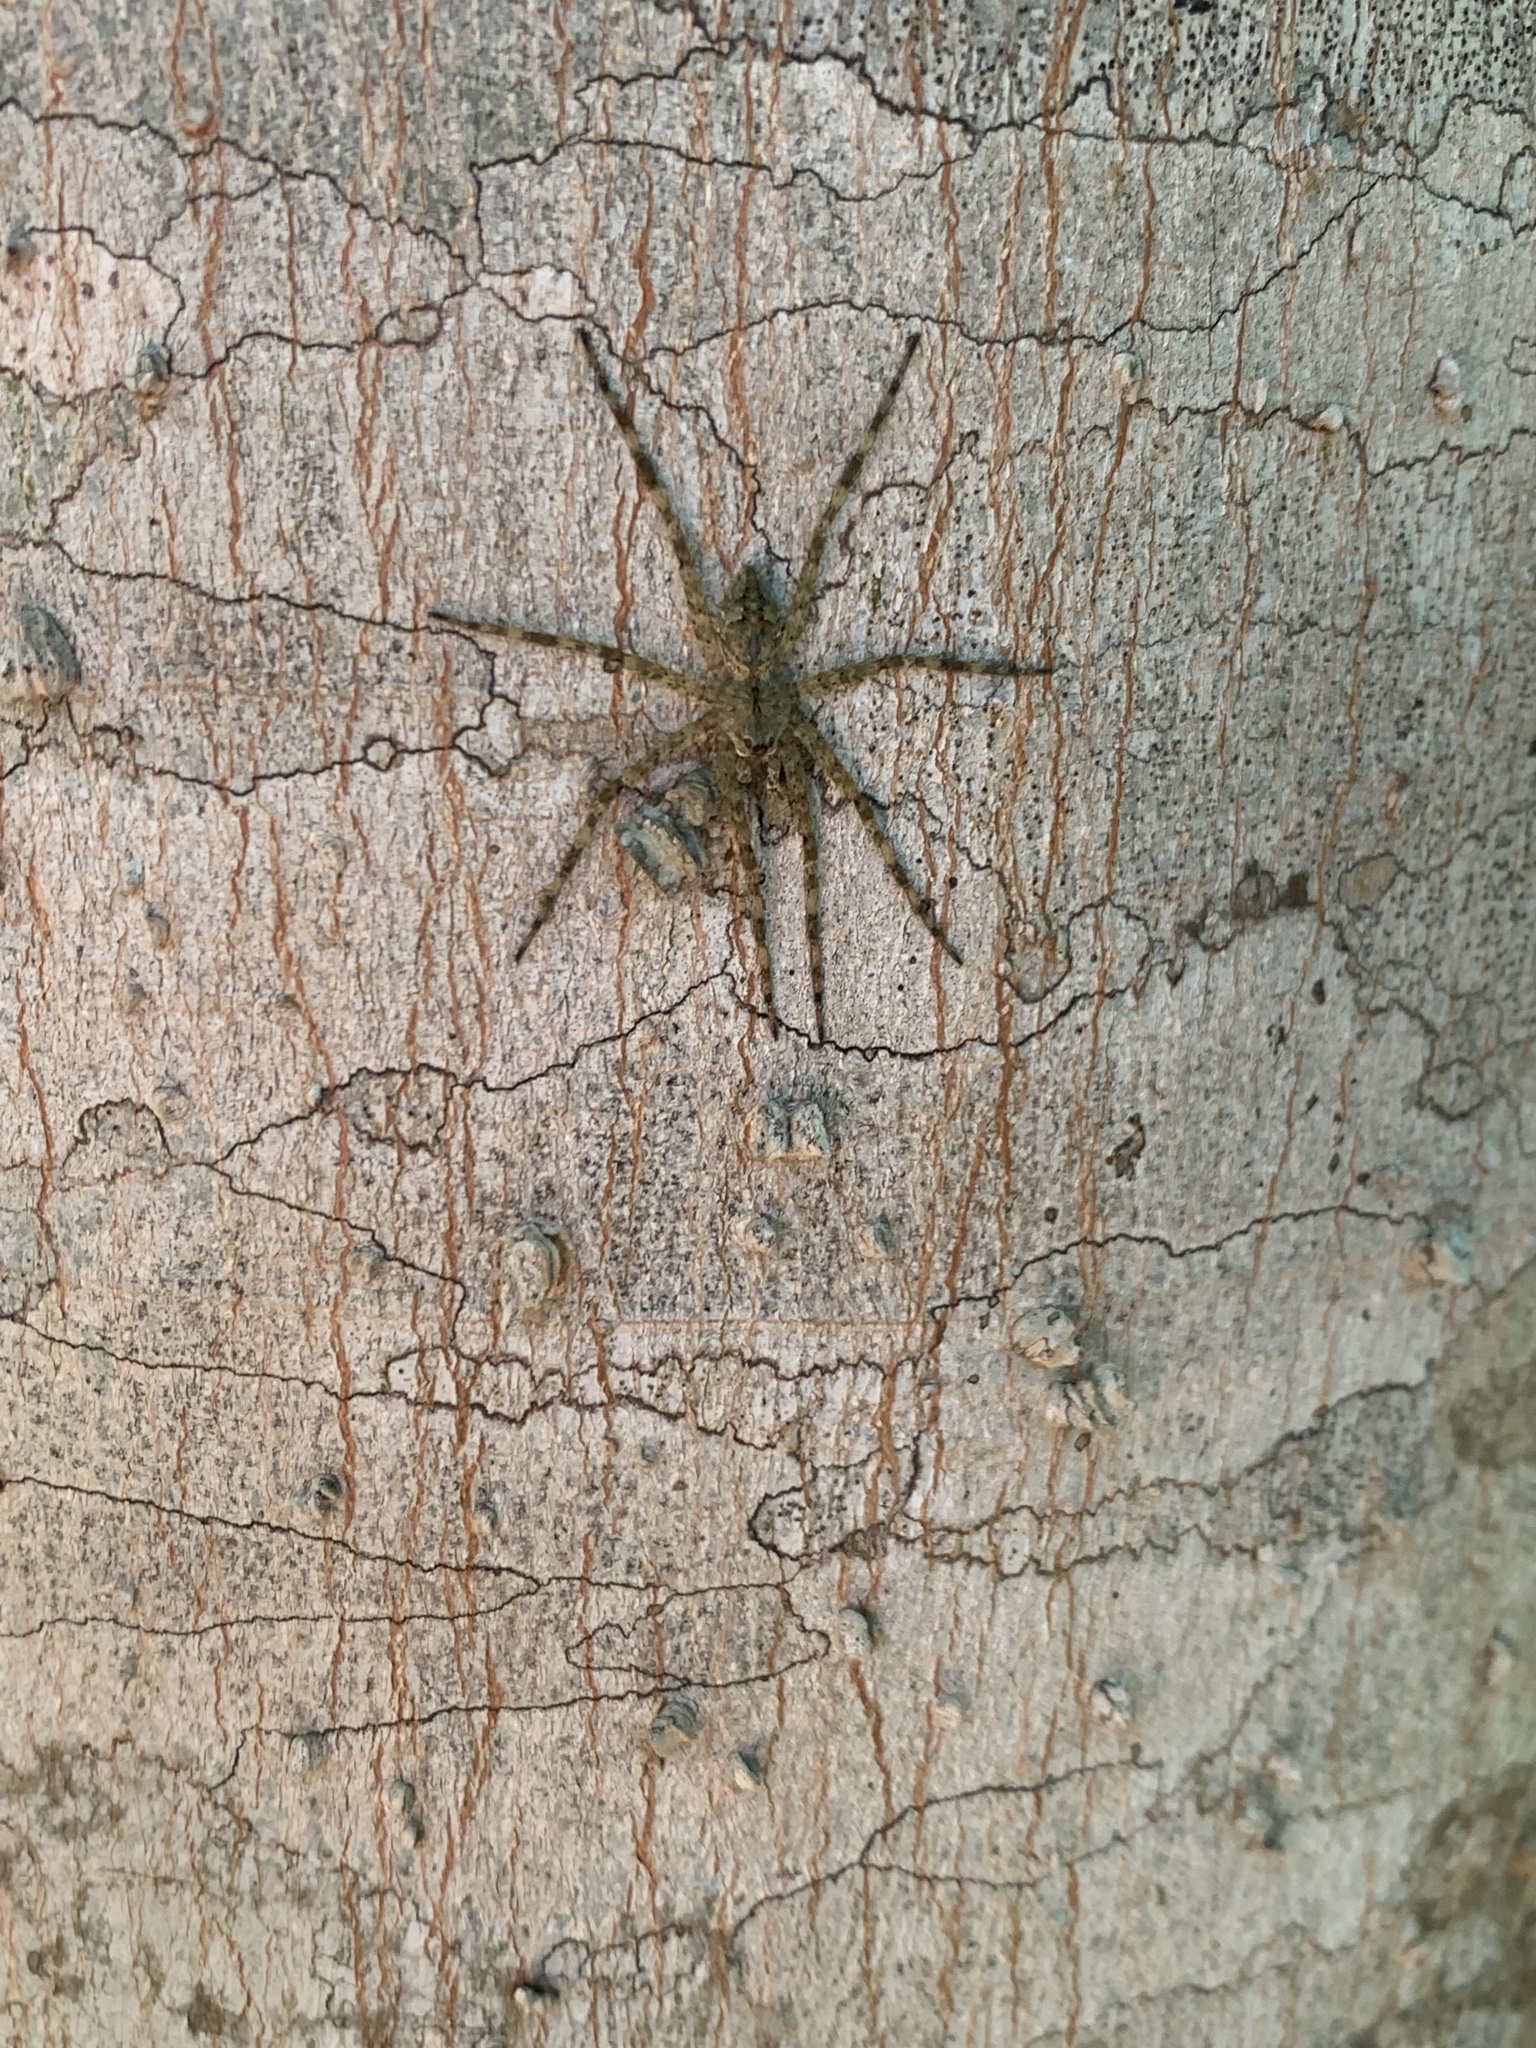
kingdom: Animalia
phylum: Arthropoda
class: Arachnida
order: Araneae
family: Pisauridae
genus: Dolomedes
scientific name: Dolomedes albineus
